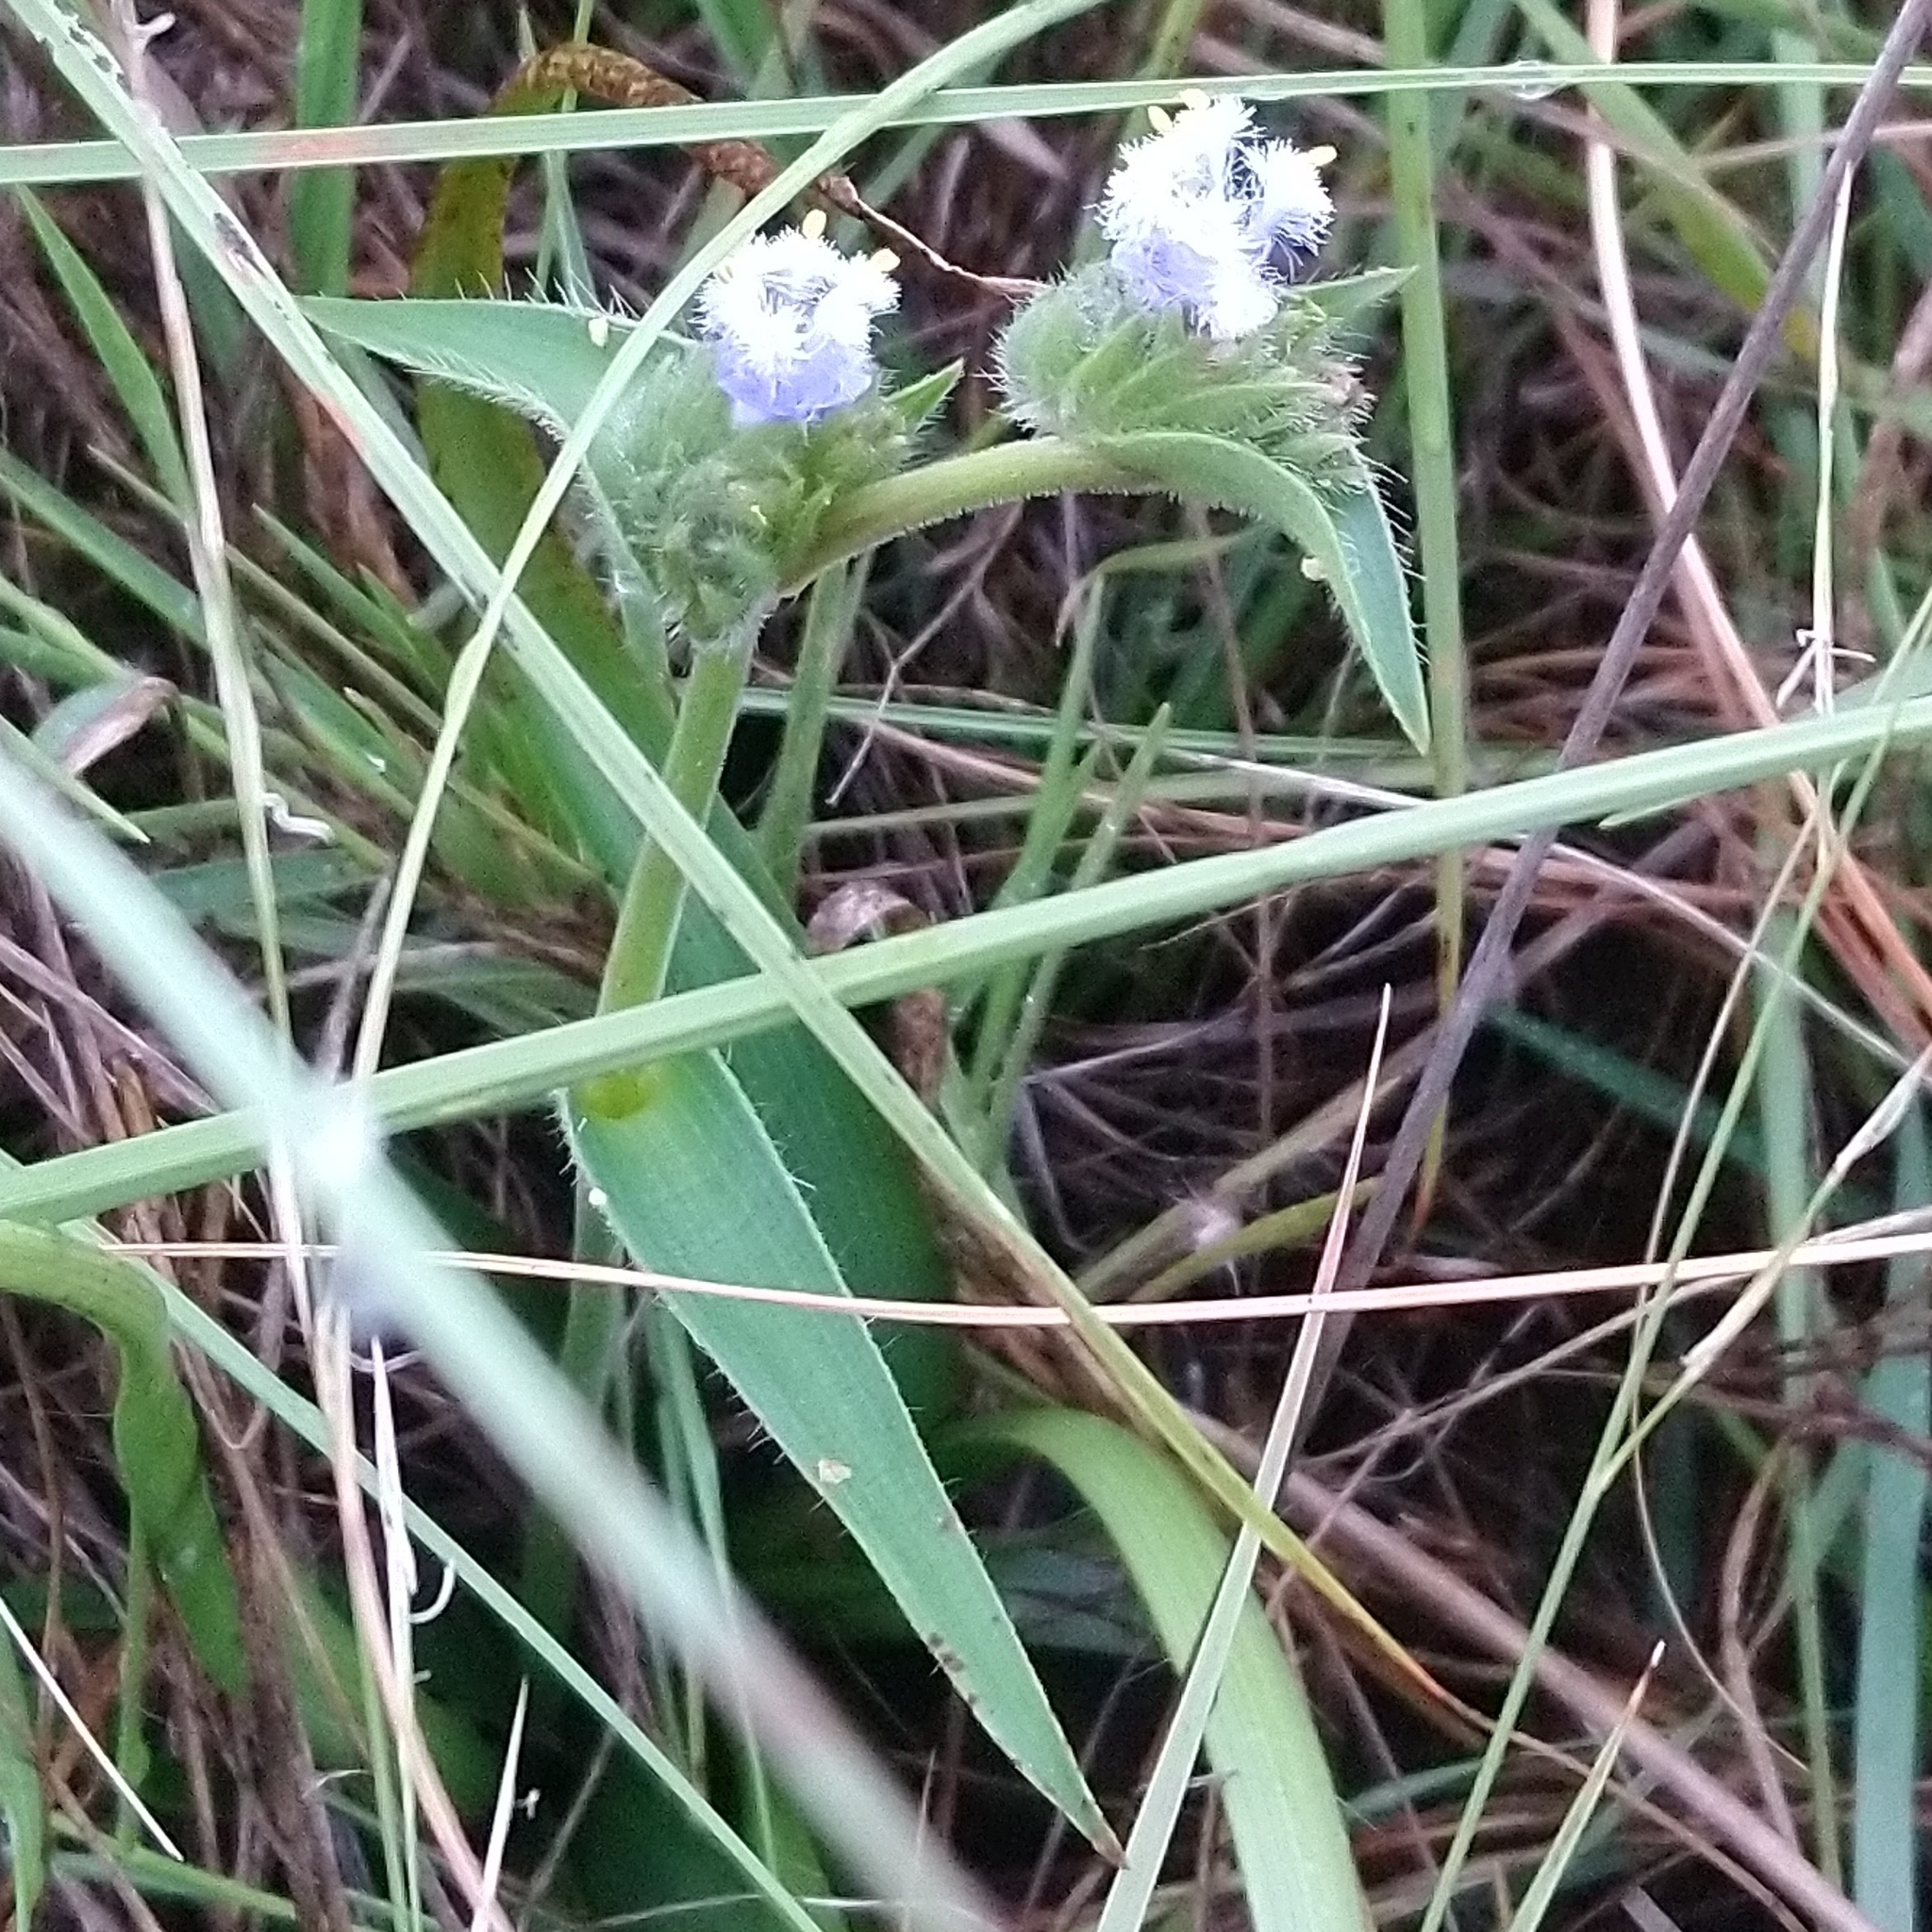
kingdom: Plantae
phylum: Tracheophyta
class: Liliopsida
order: Commelinales
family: Commelinaceae
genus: Cyanotis
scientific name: Cyanotis speciosa
